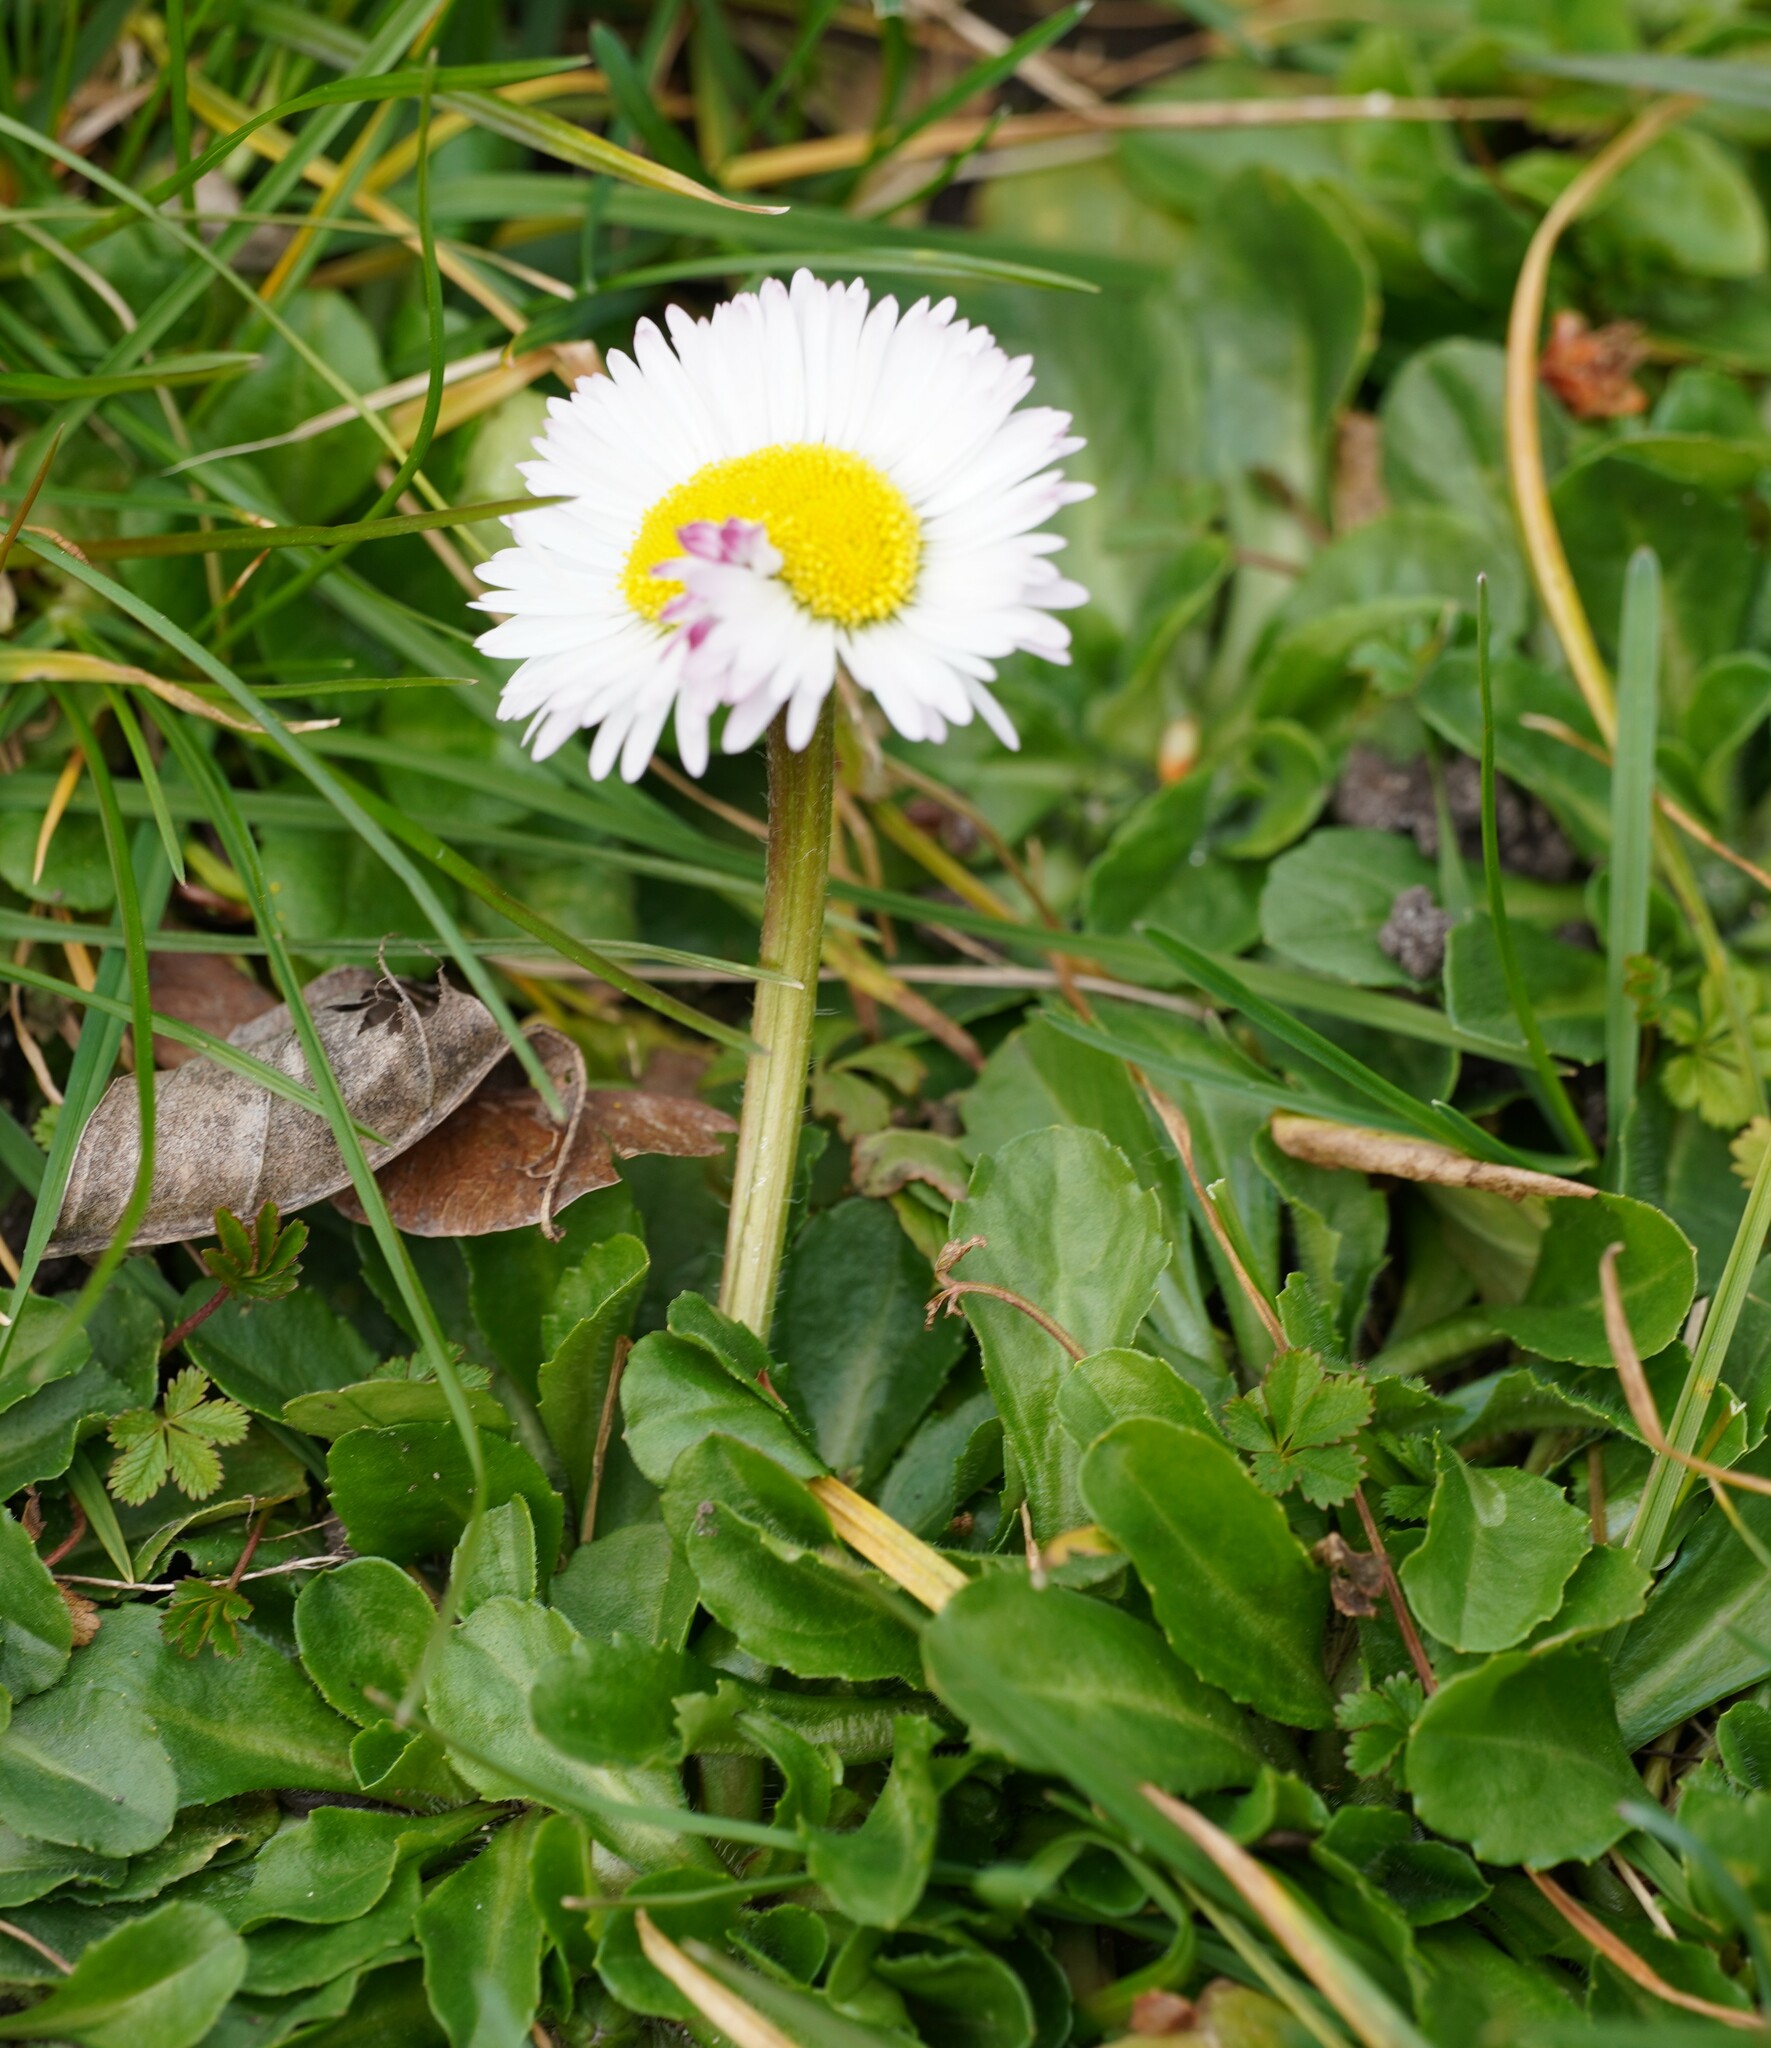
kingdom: Plantae
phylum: Tracheophyta
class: Magnoliopsida
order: Asterales
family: Asteraceae
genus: Bellis
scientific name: Bellis perennis
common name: Lawndaisy
